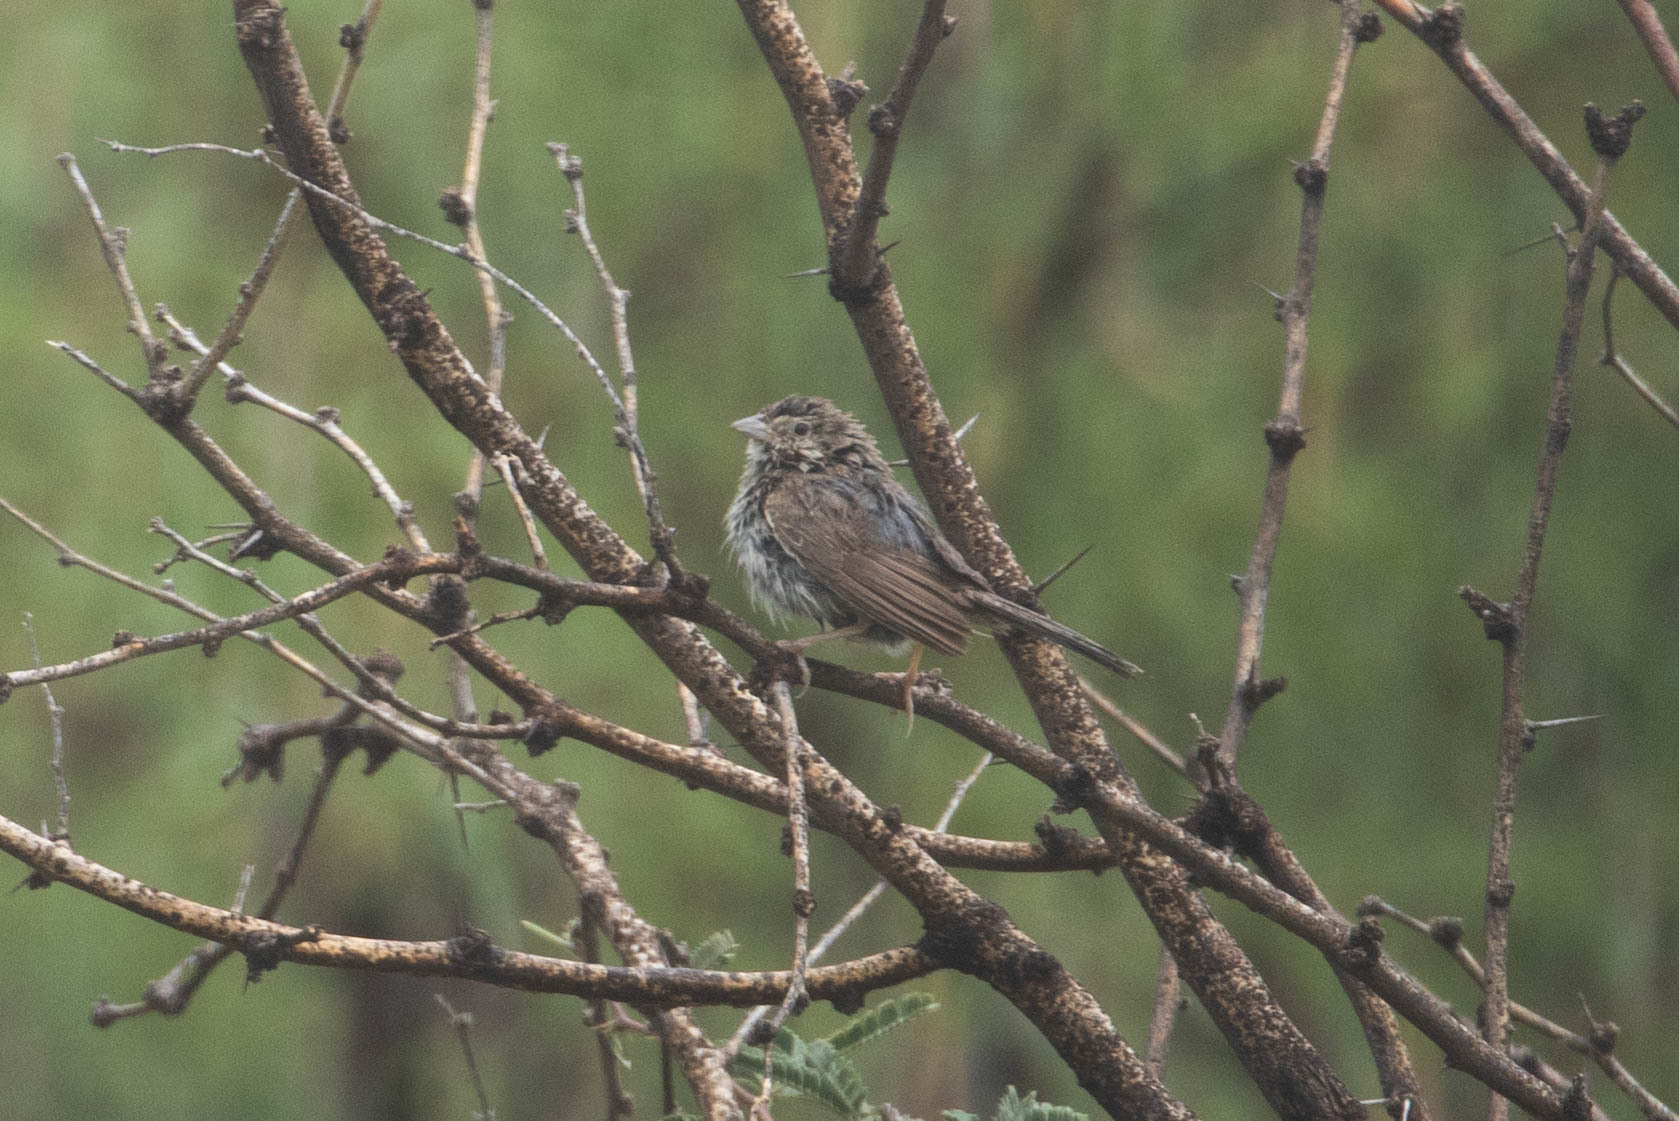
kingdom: Animalia
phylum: Chordata
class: Aves
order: Passeriformes
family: Passerellidae
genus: Peucaea
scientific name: Peucaea botterii
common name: Botteri's sparrow
